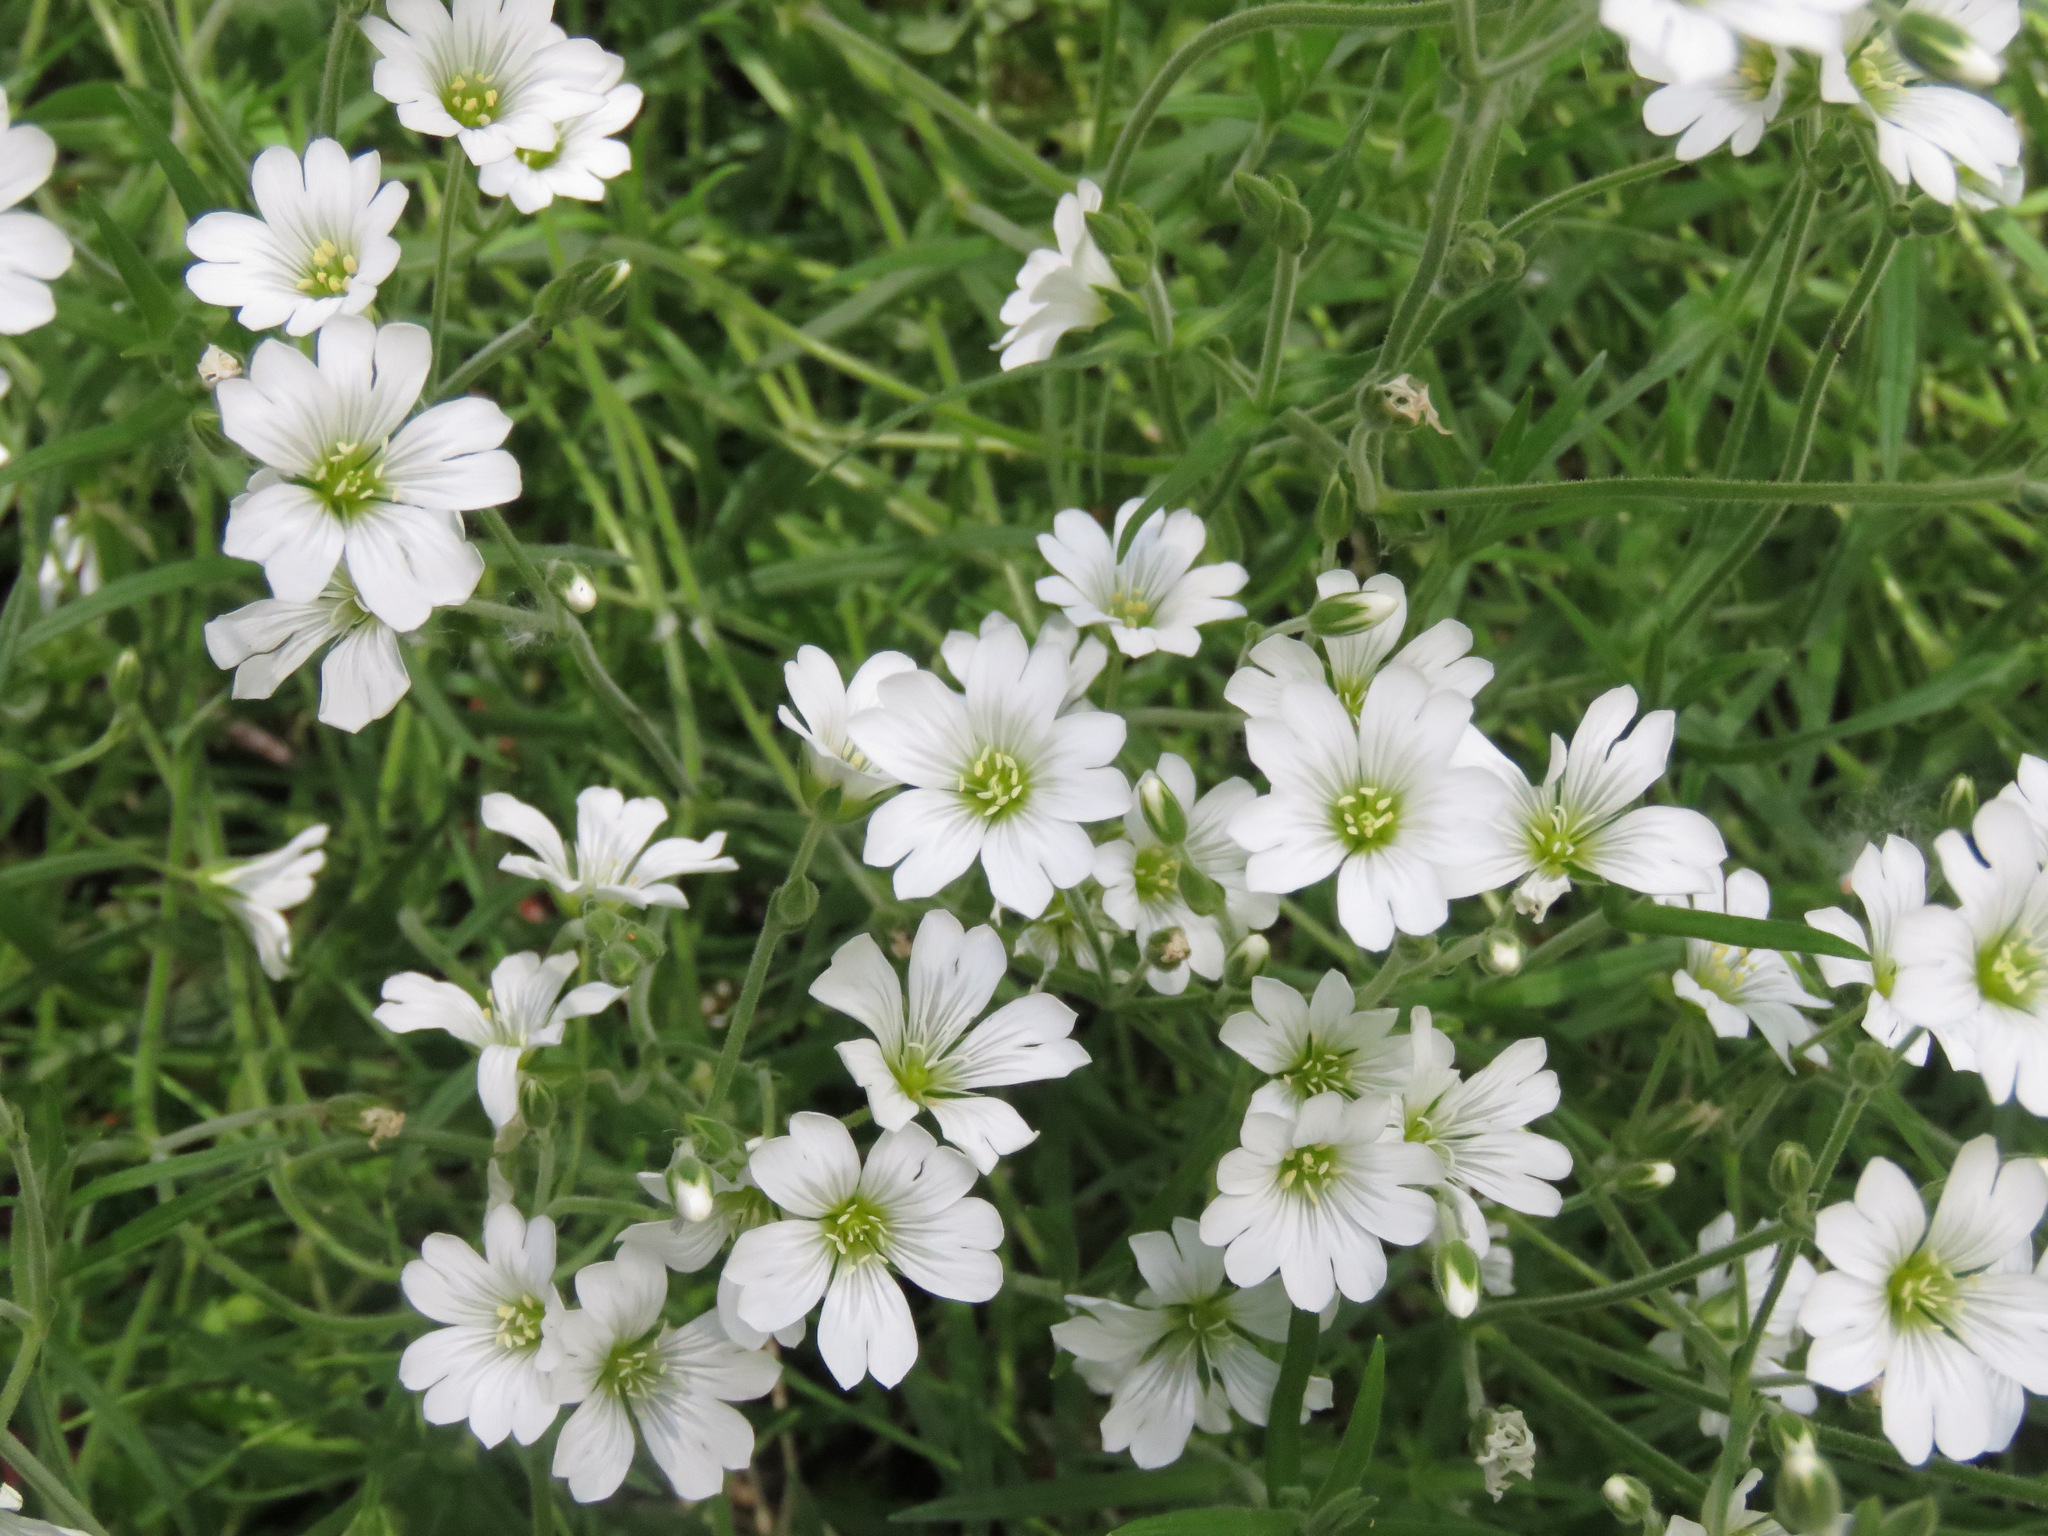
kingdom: Plantae
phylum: Tracheophyta
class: Magnoliopsida
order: Caryophyllales
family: Caryophyllaceae
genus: Cerastium
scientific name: Cerastium arvense
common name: Field mouse-ear
